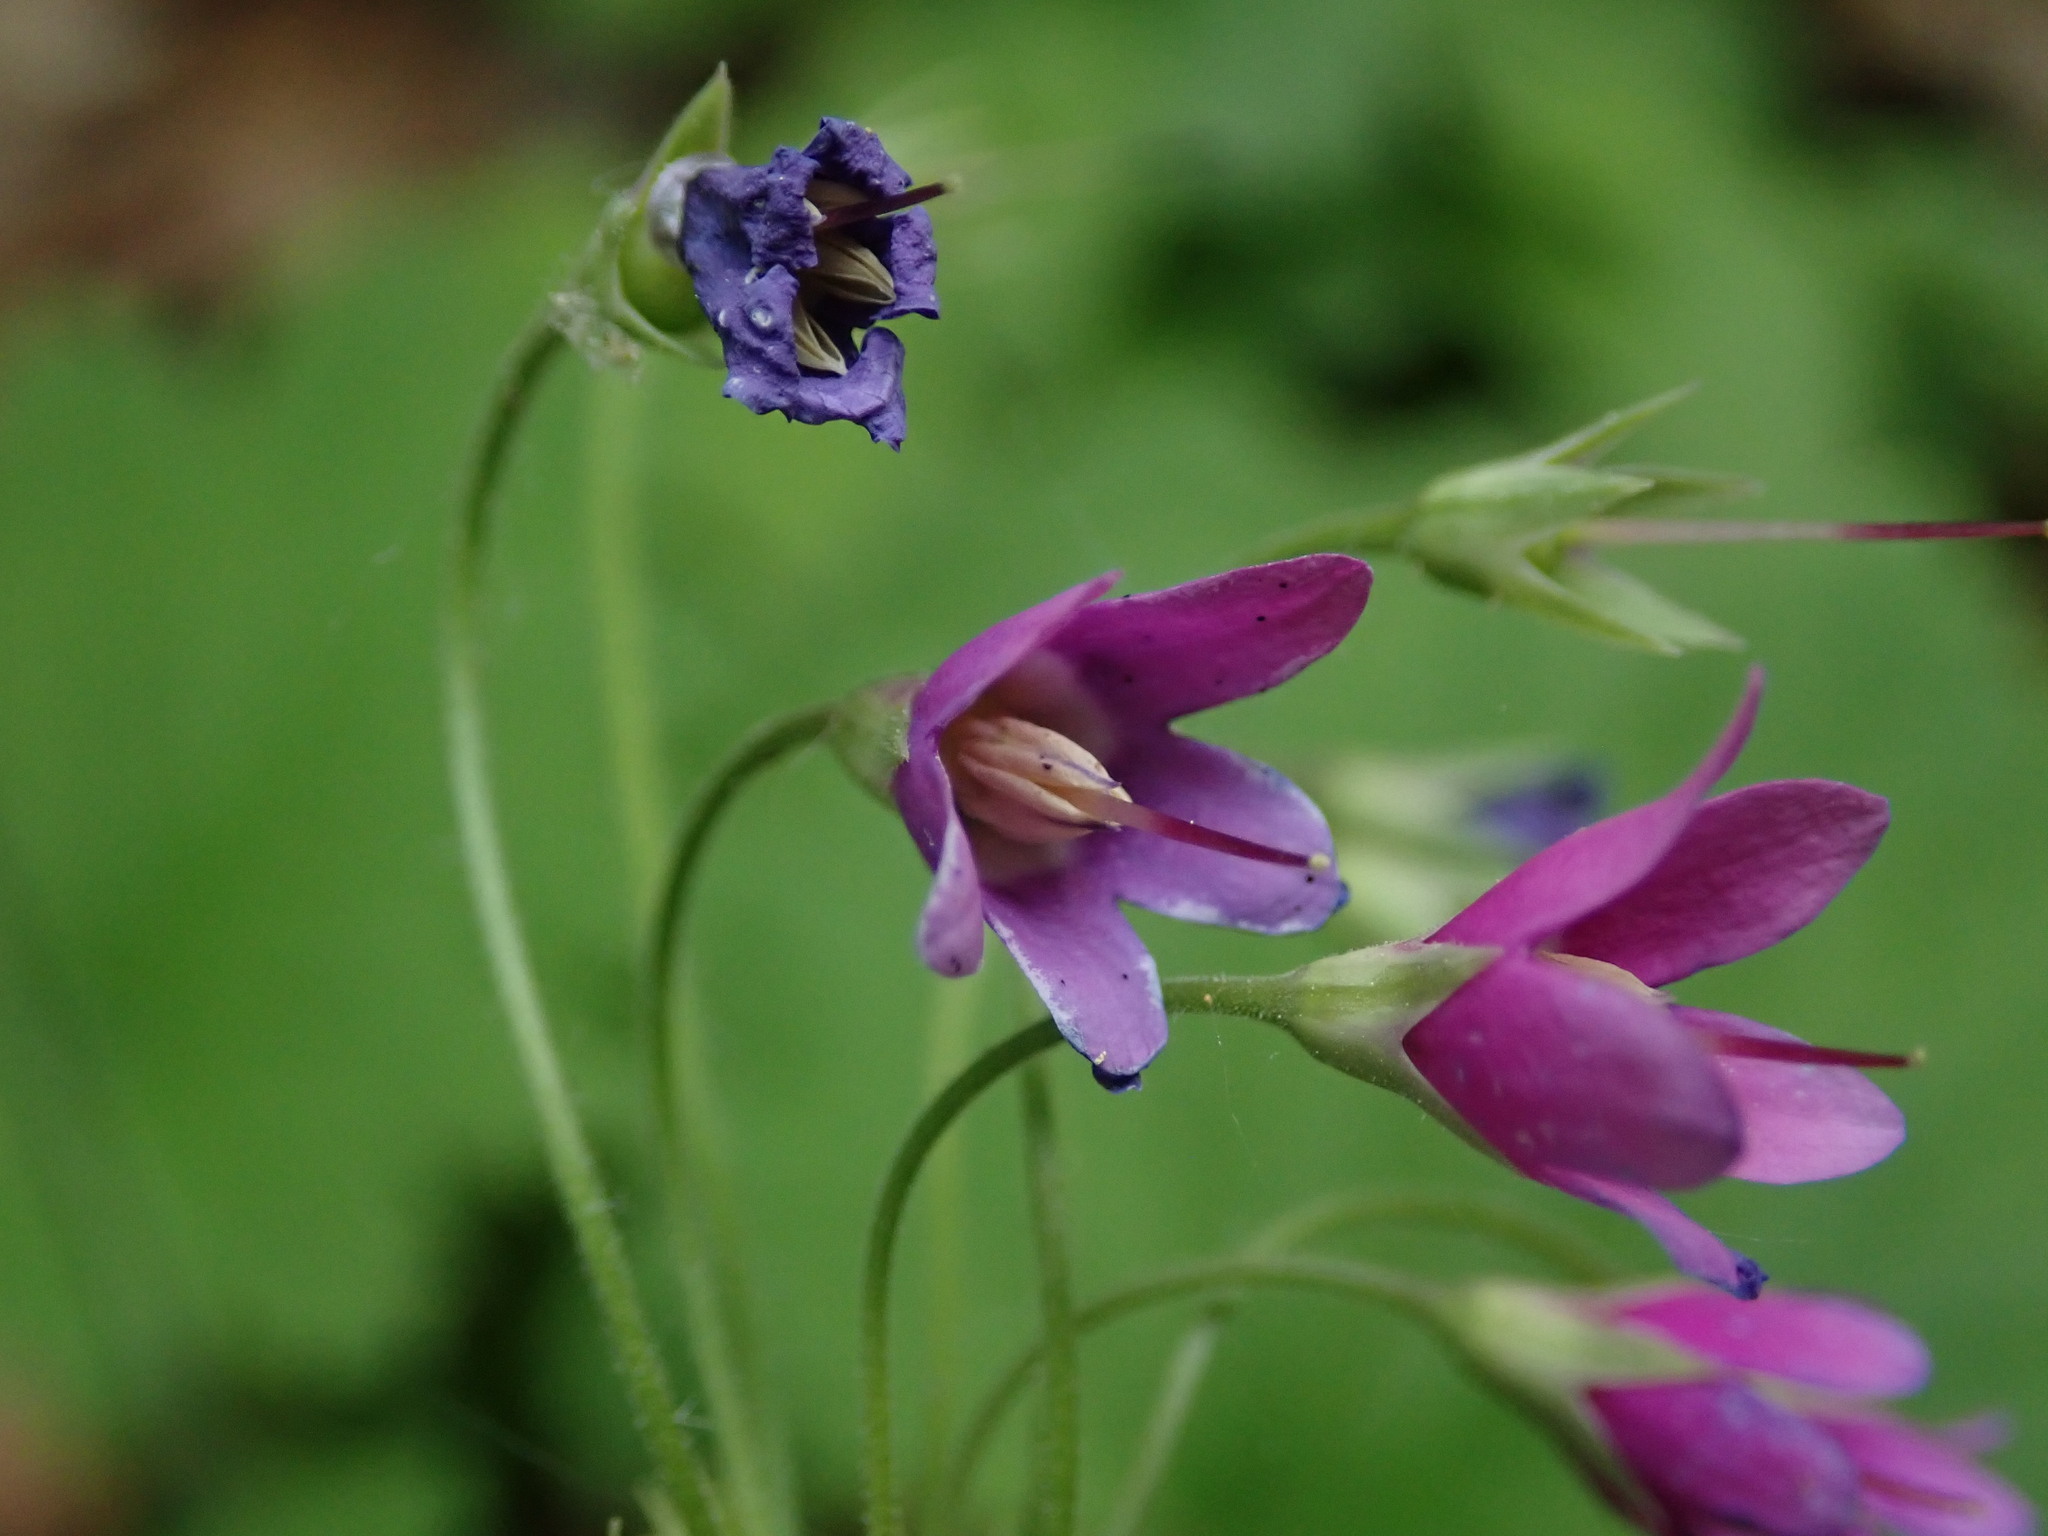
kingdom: Plantae
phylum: Tracheophyta
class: Magnoliopsida
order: Ericales
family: Primulaceae
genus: Primula
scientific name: Primula matthioli
